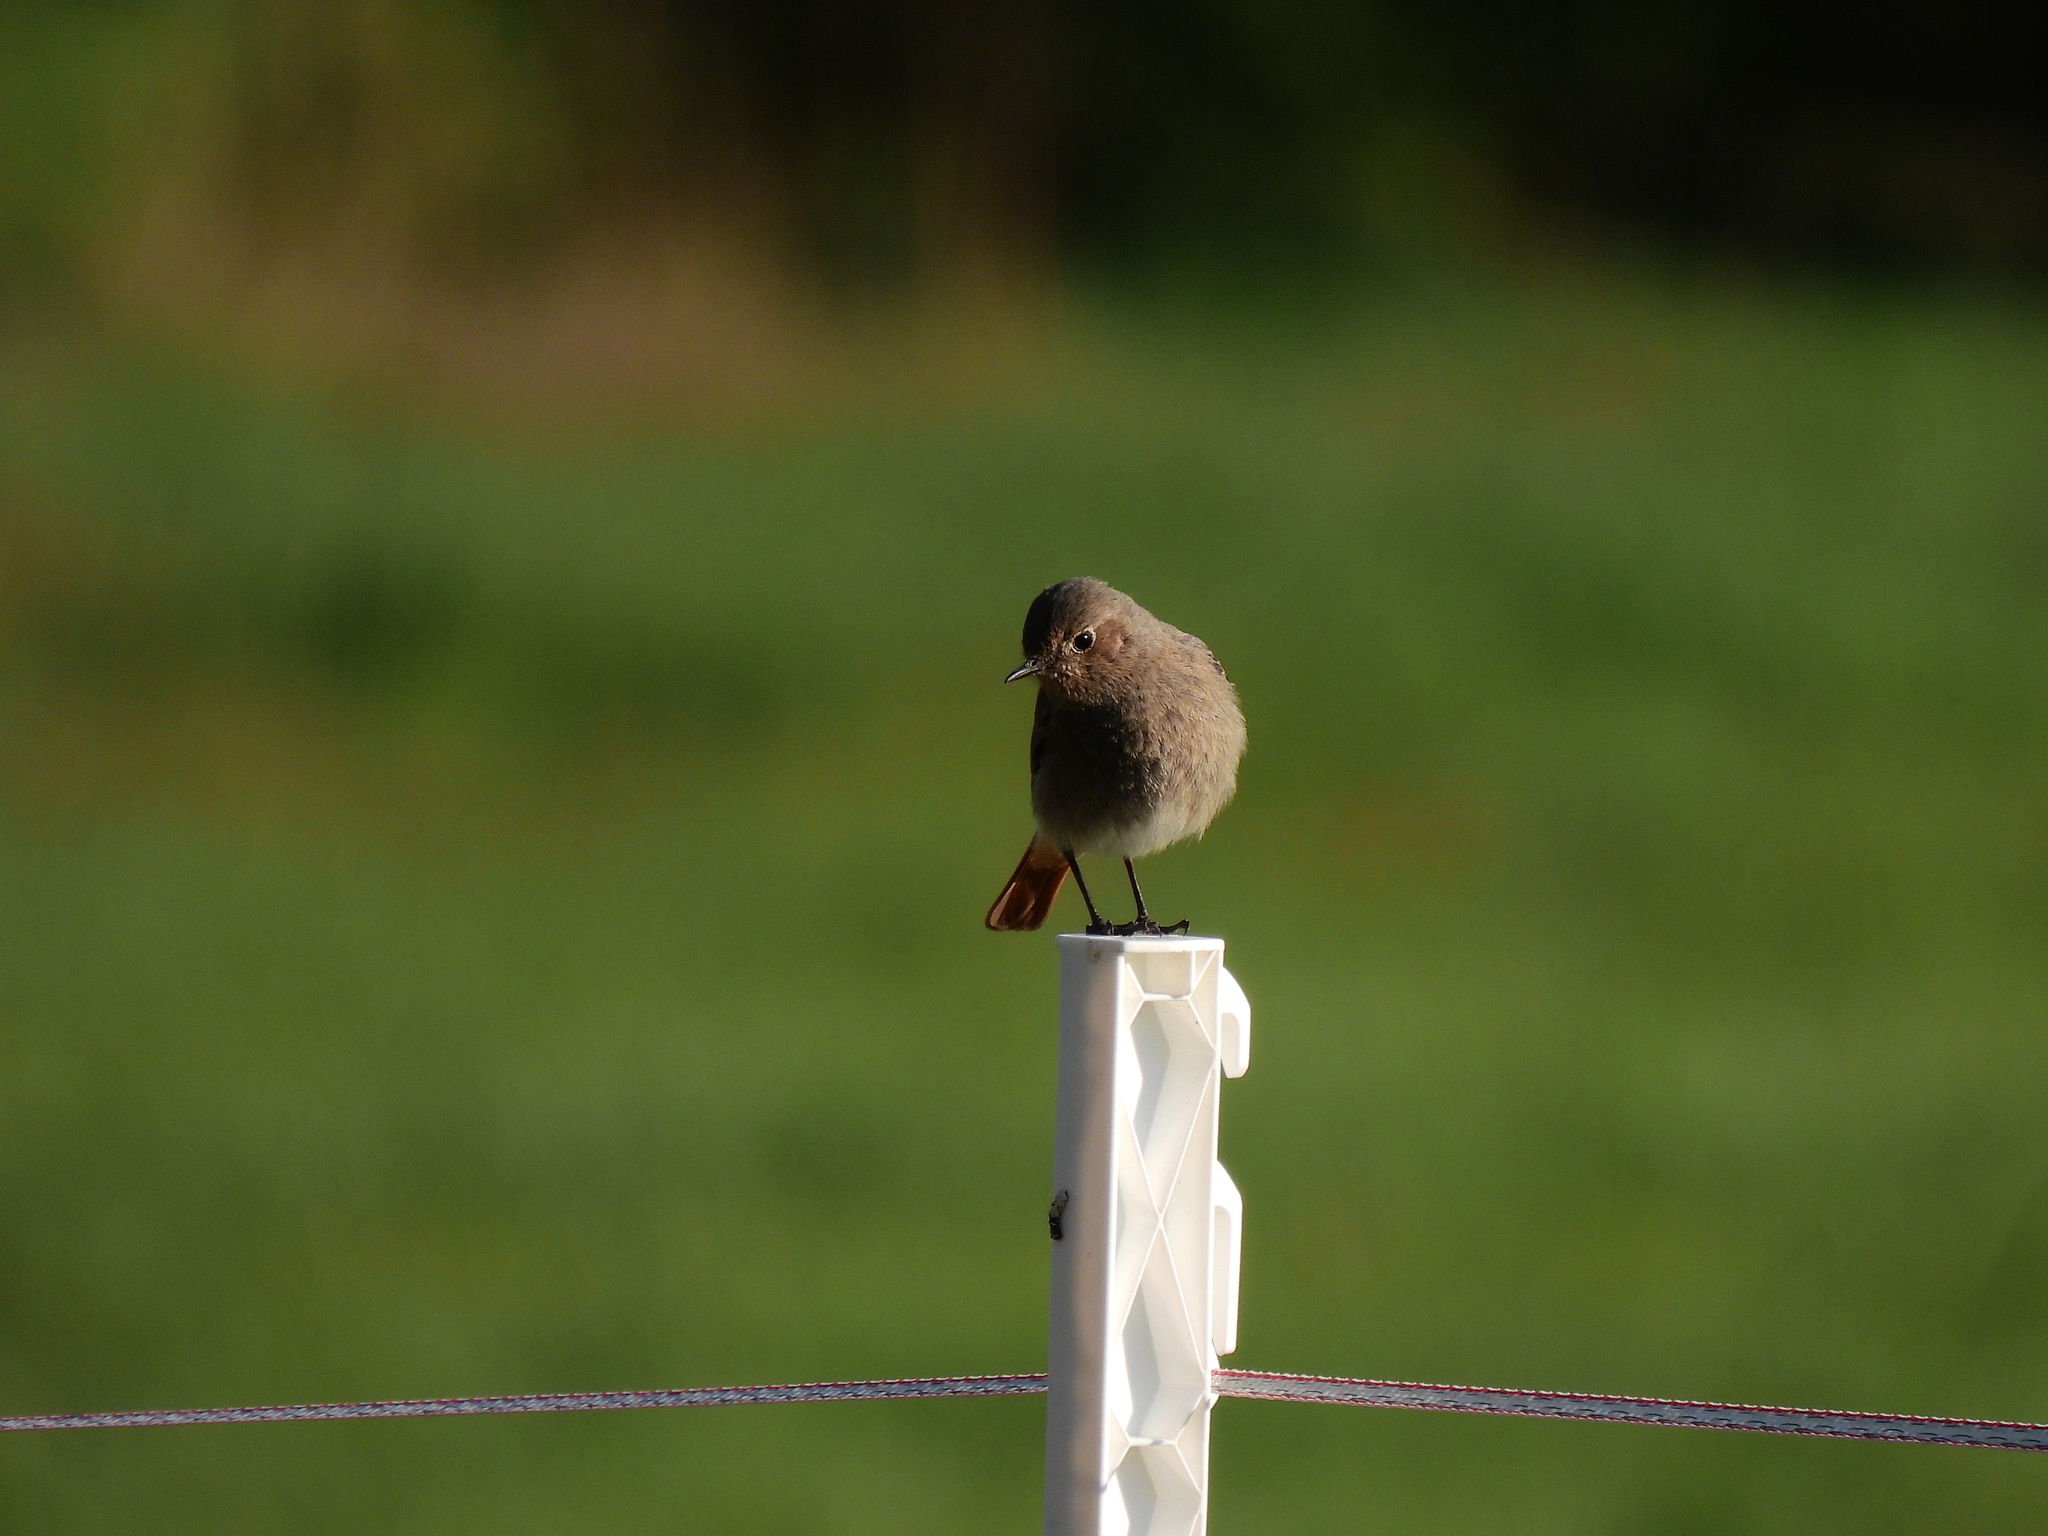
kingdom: Animalia
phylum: Chordata
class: Aves
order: Passeriformes
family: Muscicapidae
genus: Phoenicurus
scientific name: Phoenicurus ochruros
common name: Black redstart
